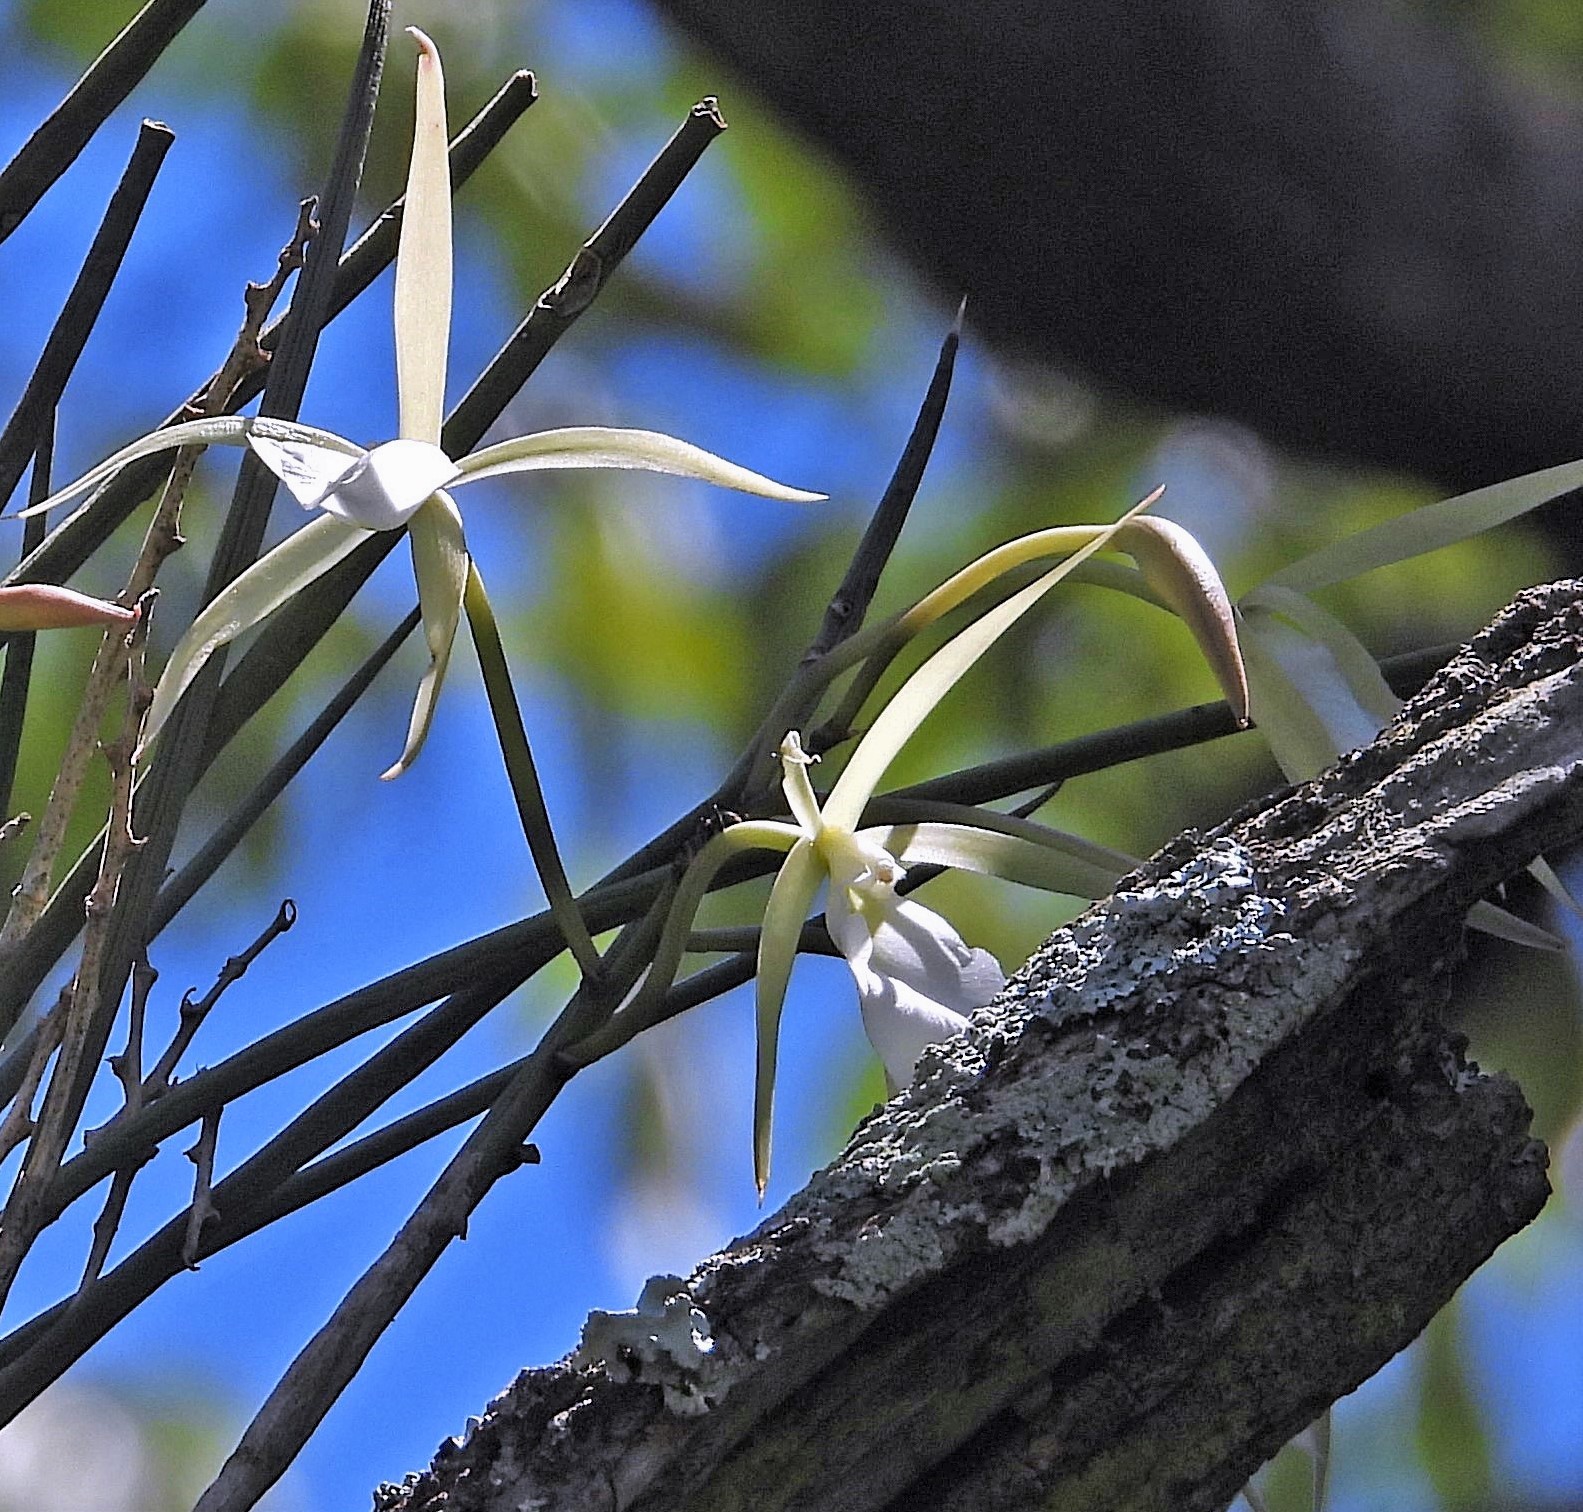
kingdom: Plantae
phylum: Tracheophyta
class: Liliopsida
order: Asparagales
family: Orchidaceae
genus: Brassavola
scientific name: Brassavola tuberculata
